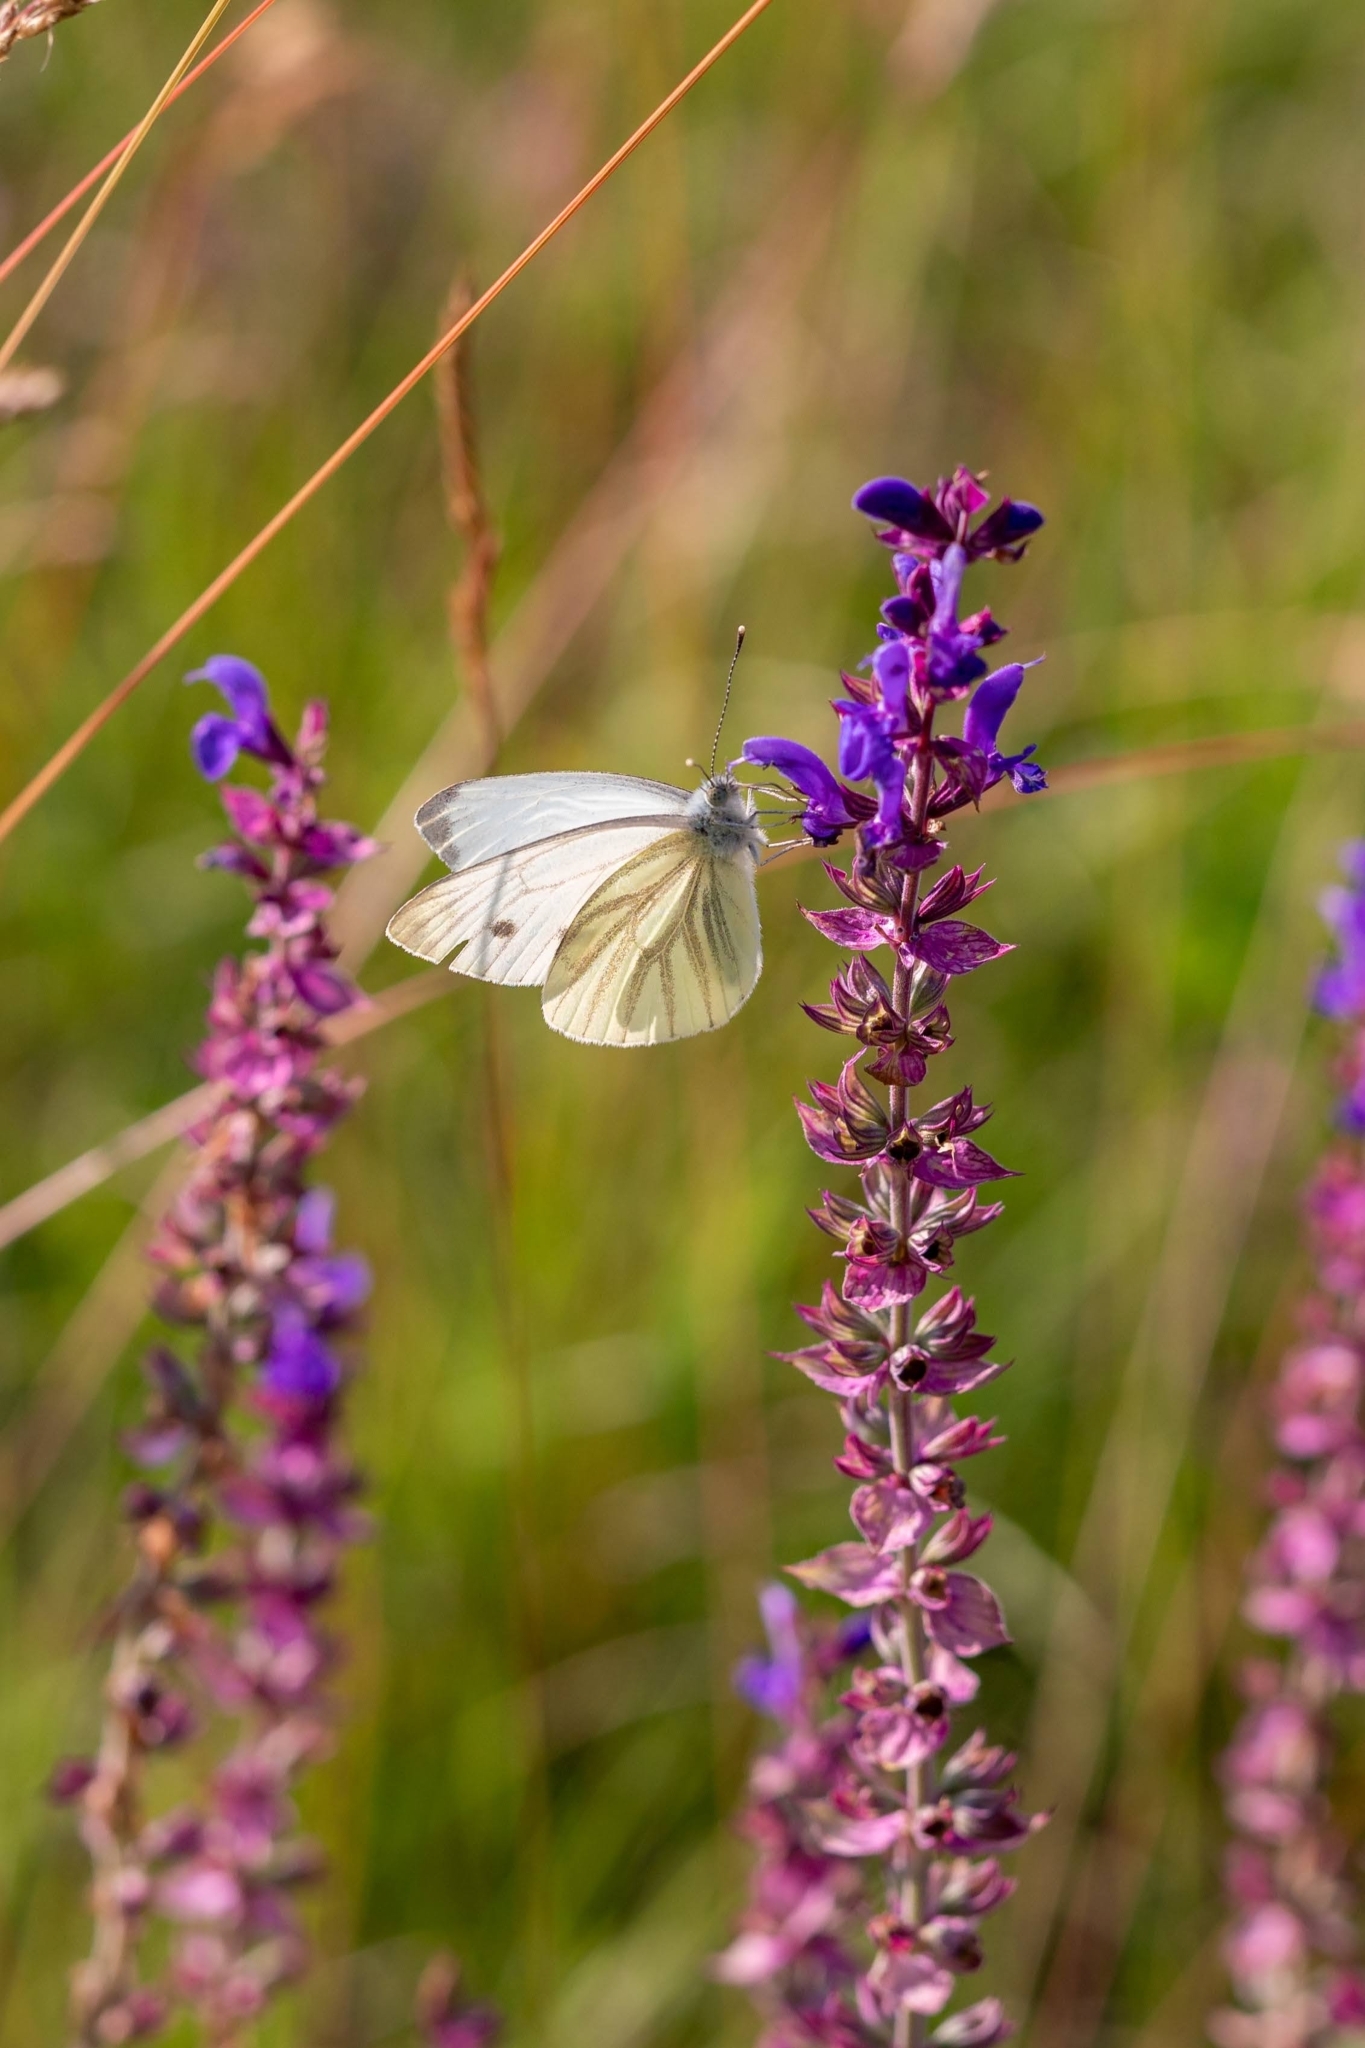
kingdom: Animalia
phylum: Arthropoda
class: Insecta
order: Lepidoptera
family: Pieridae
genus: Pieris
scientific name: Pieris napi
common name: Green-veined white
